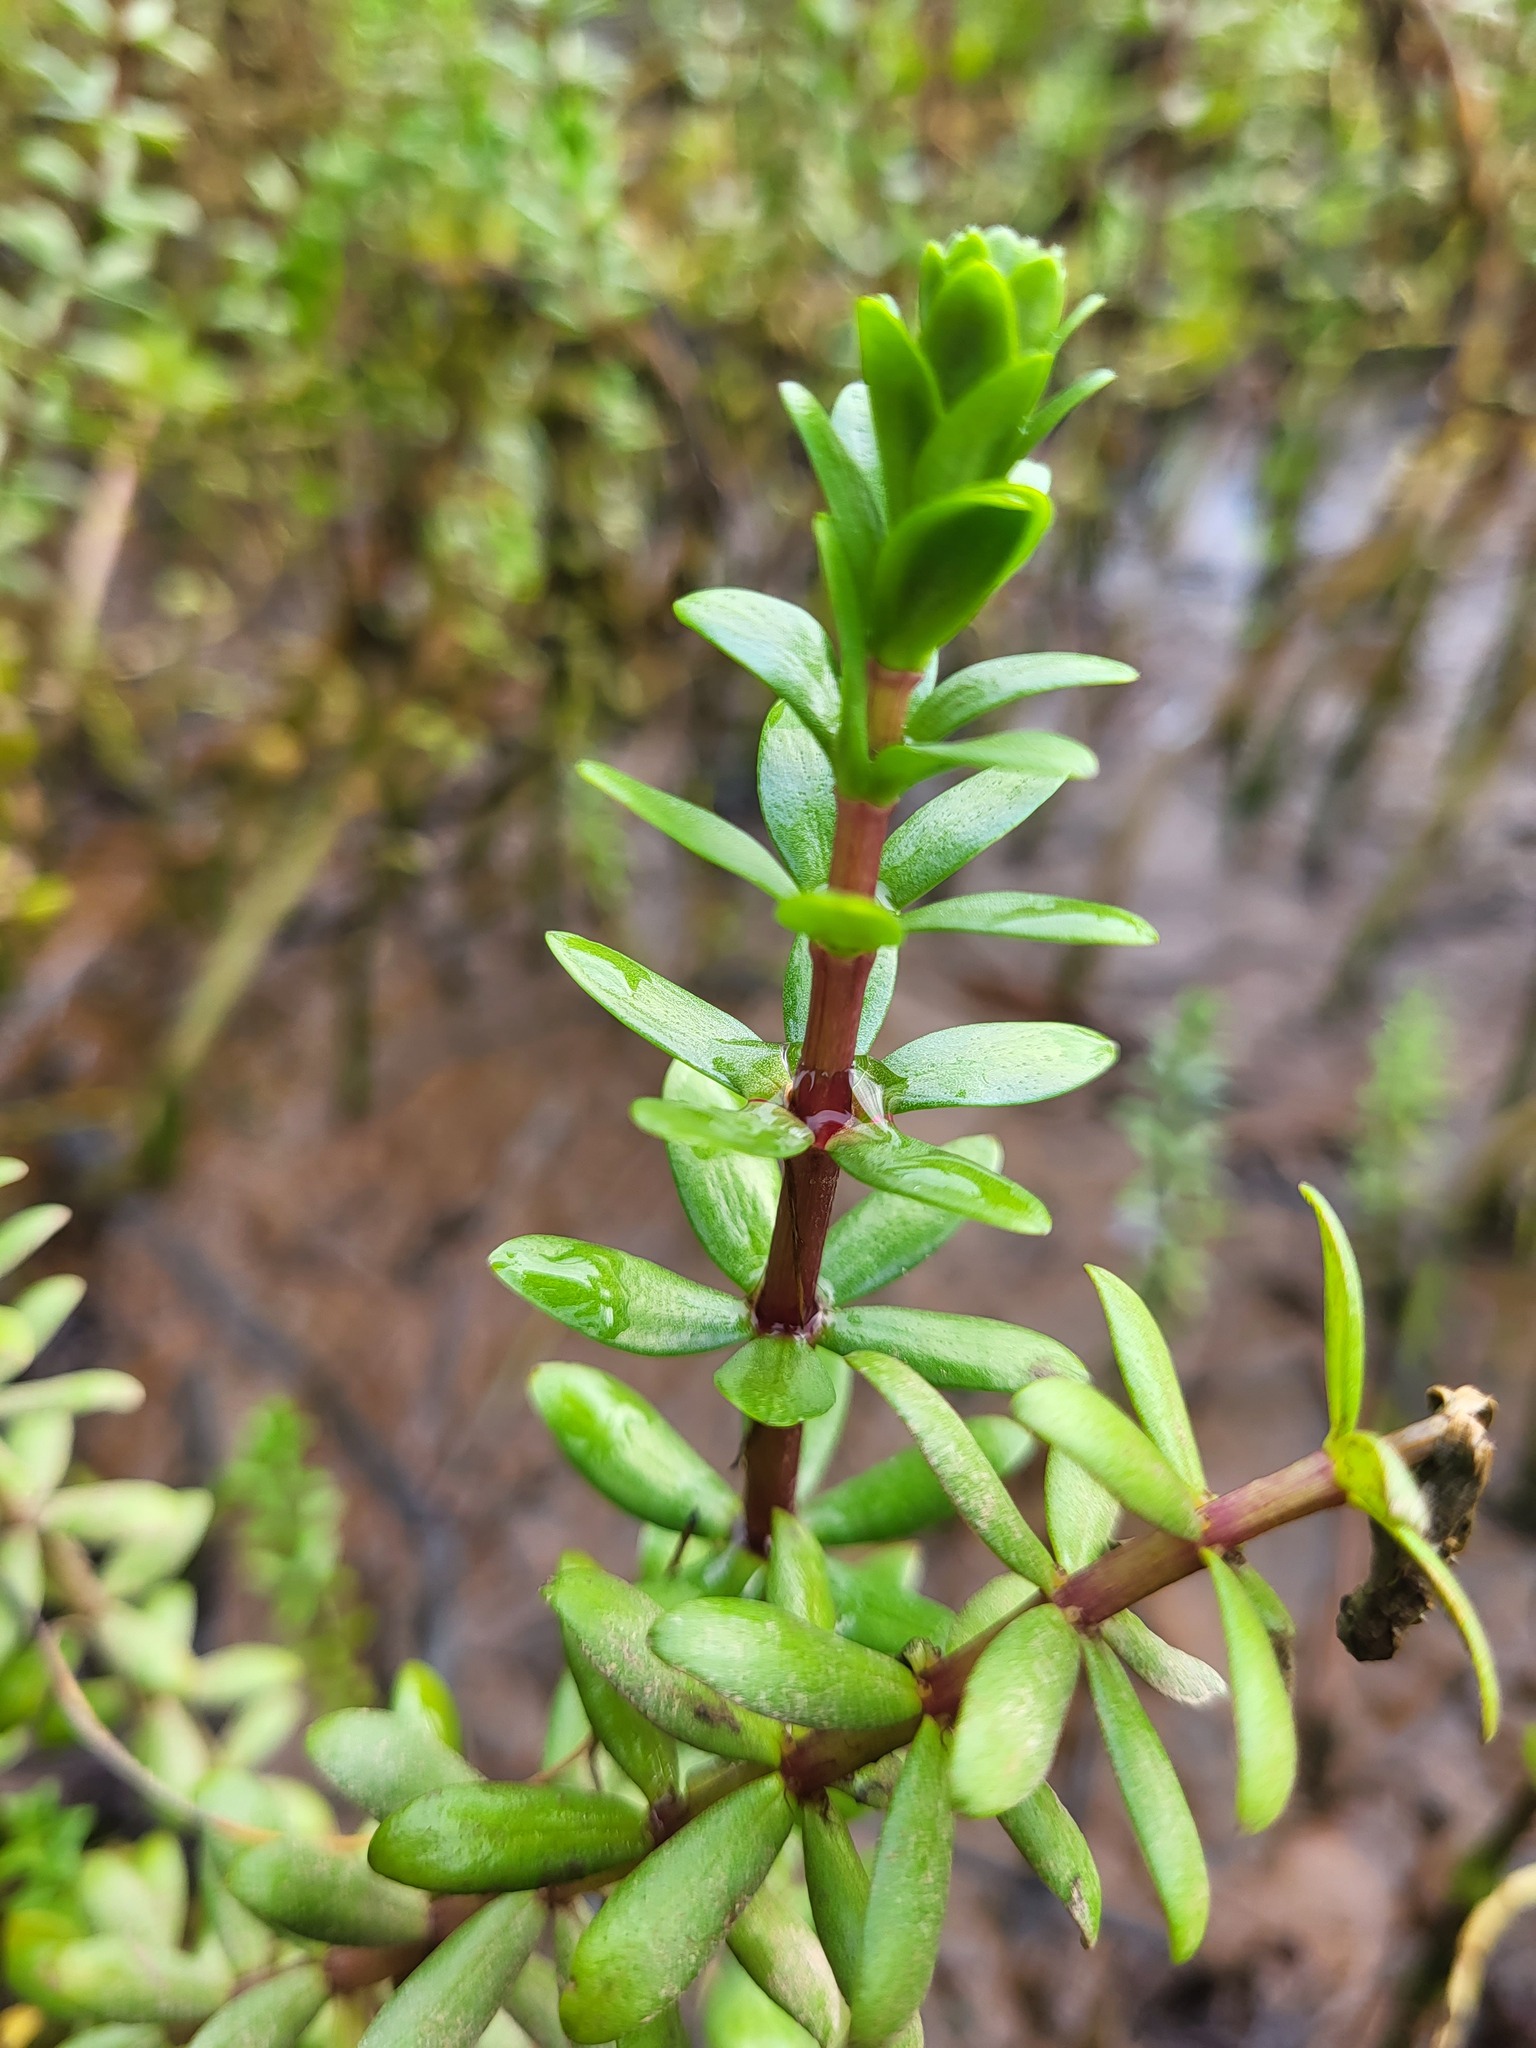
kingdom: Plantae
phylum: Tracheophyta
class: Magnoliopsida
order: Lamiales
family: Plantaginaceae
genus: Hippuris
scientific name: Hippuris tetraphylla
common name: Four-leaved mare's-tail
